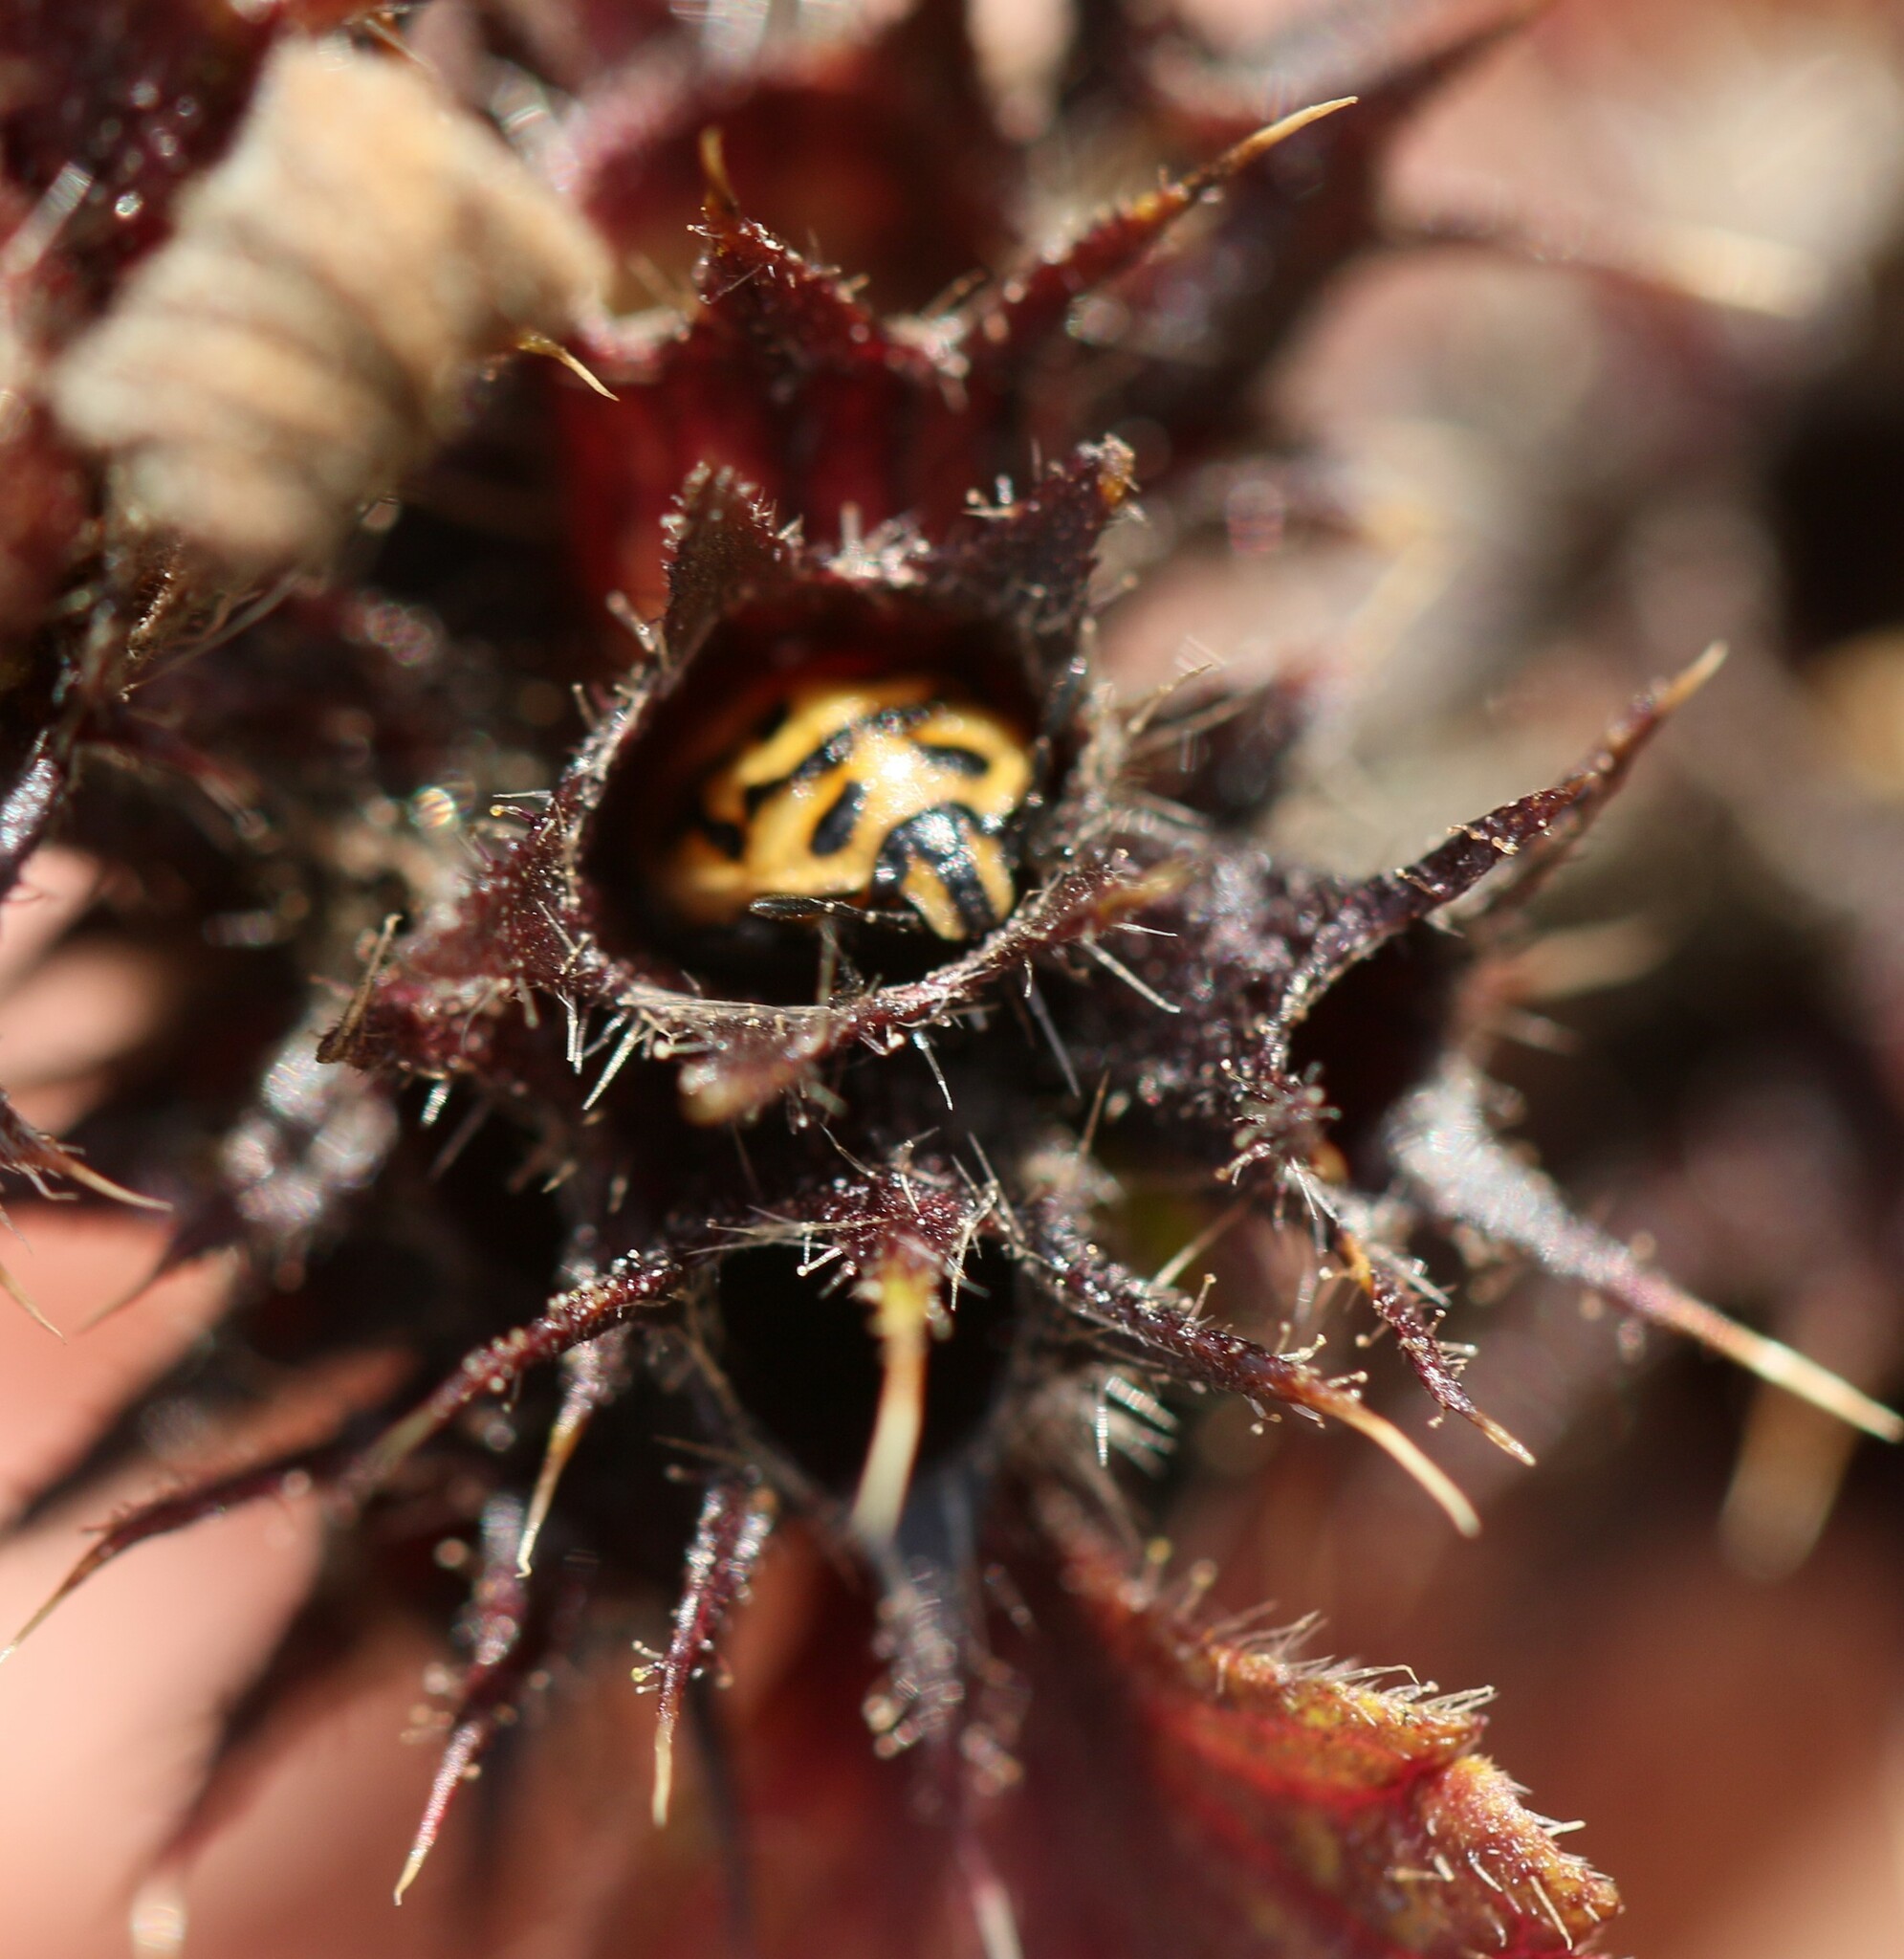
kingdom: Animalia
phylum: Arthropoda
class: Insecta
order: Hemiptera
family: Pentatomidae
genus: Cosmopepla
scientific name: Cosmopepla lintneriana
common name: Twice-stabbed stink bug
